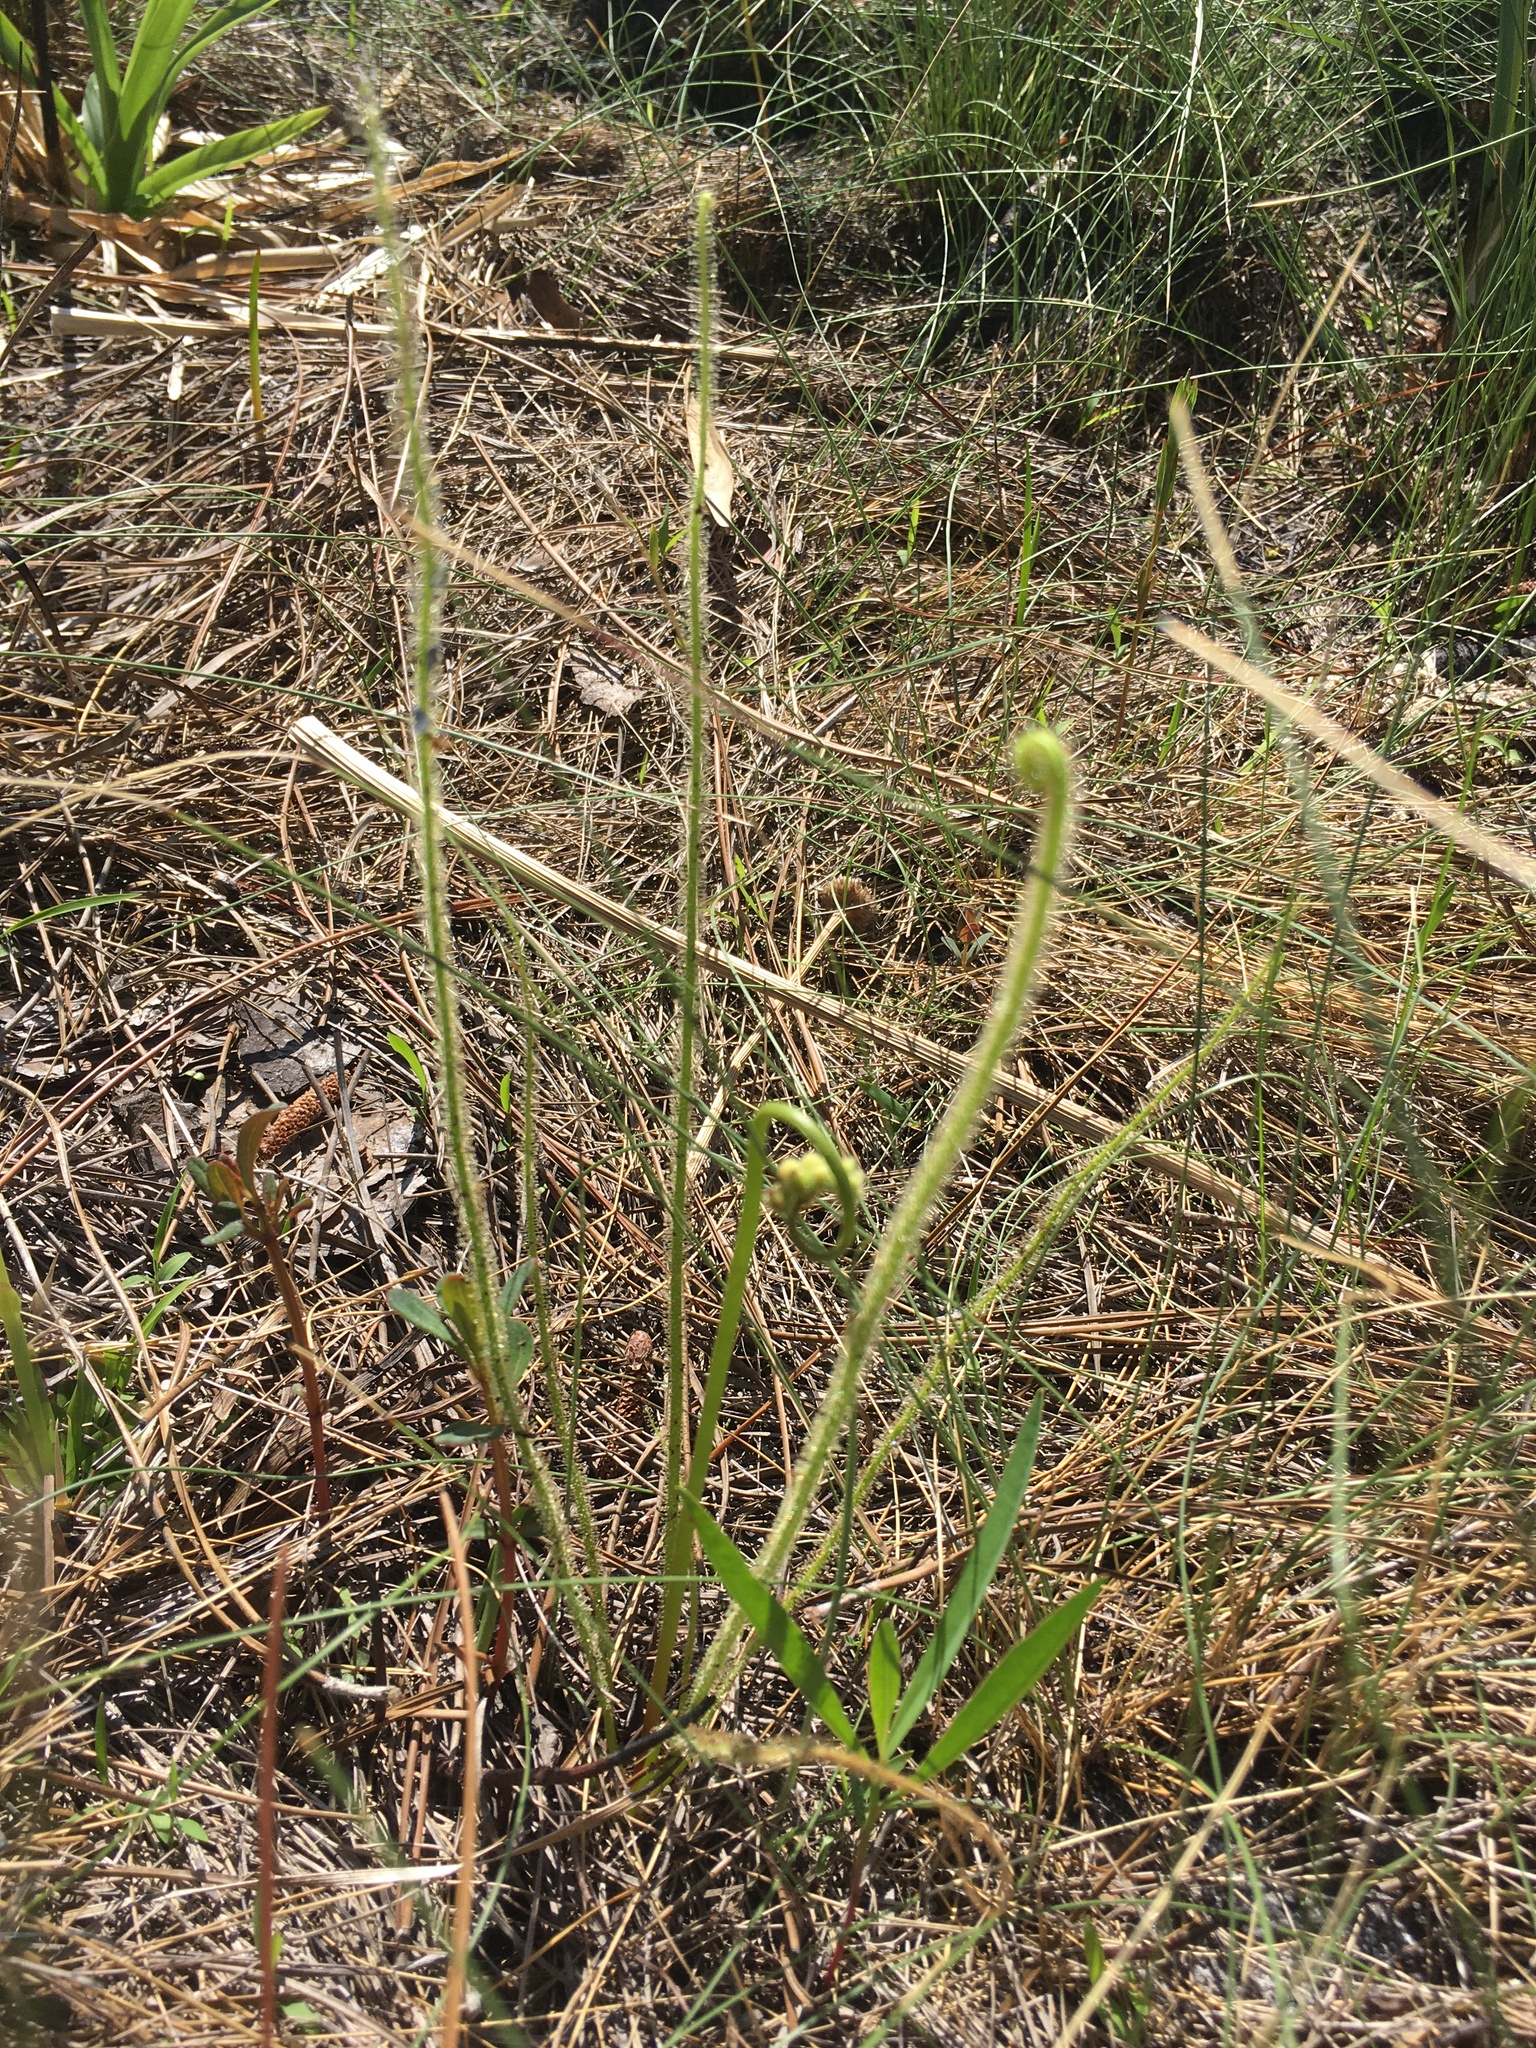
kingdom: Plantae
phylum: Tracheophyta
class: Magnoliopsida
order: Caryophyllales
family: Droseraceae
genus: Drosera
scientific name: Drosera filiformis
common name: Dew-thread
